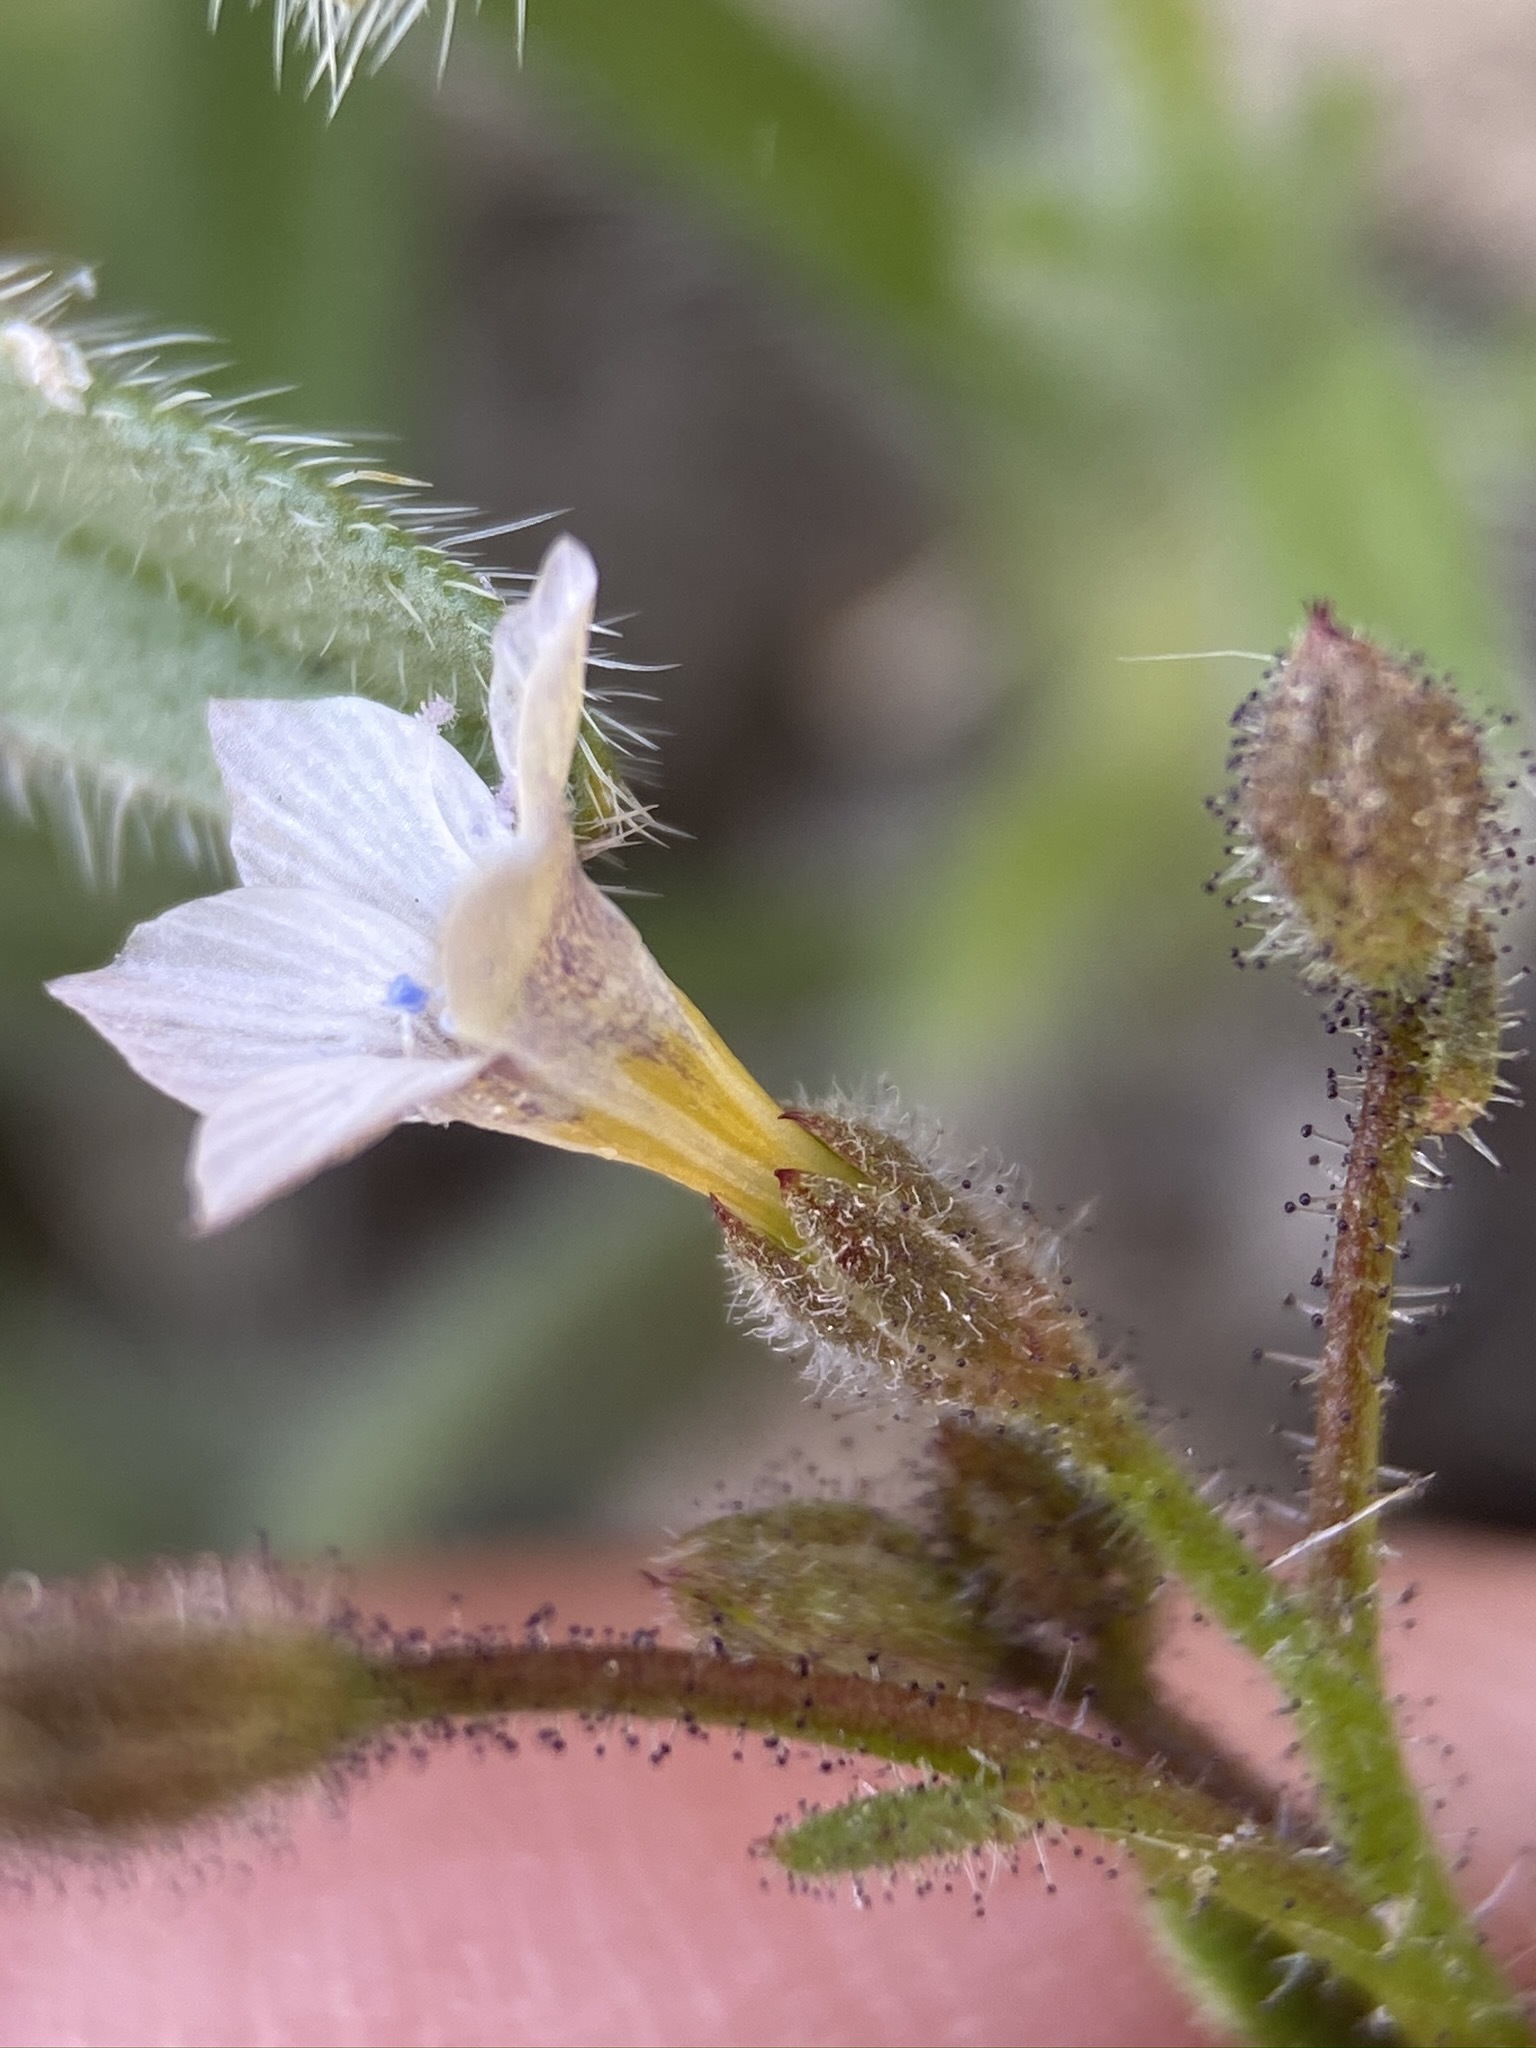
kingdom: Plantae
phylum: Tracheophyta
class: Magnoliopsida
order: Ericales
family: Polemoniaceae
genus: Gilia
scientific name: Gilia stellata
